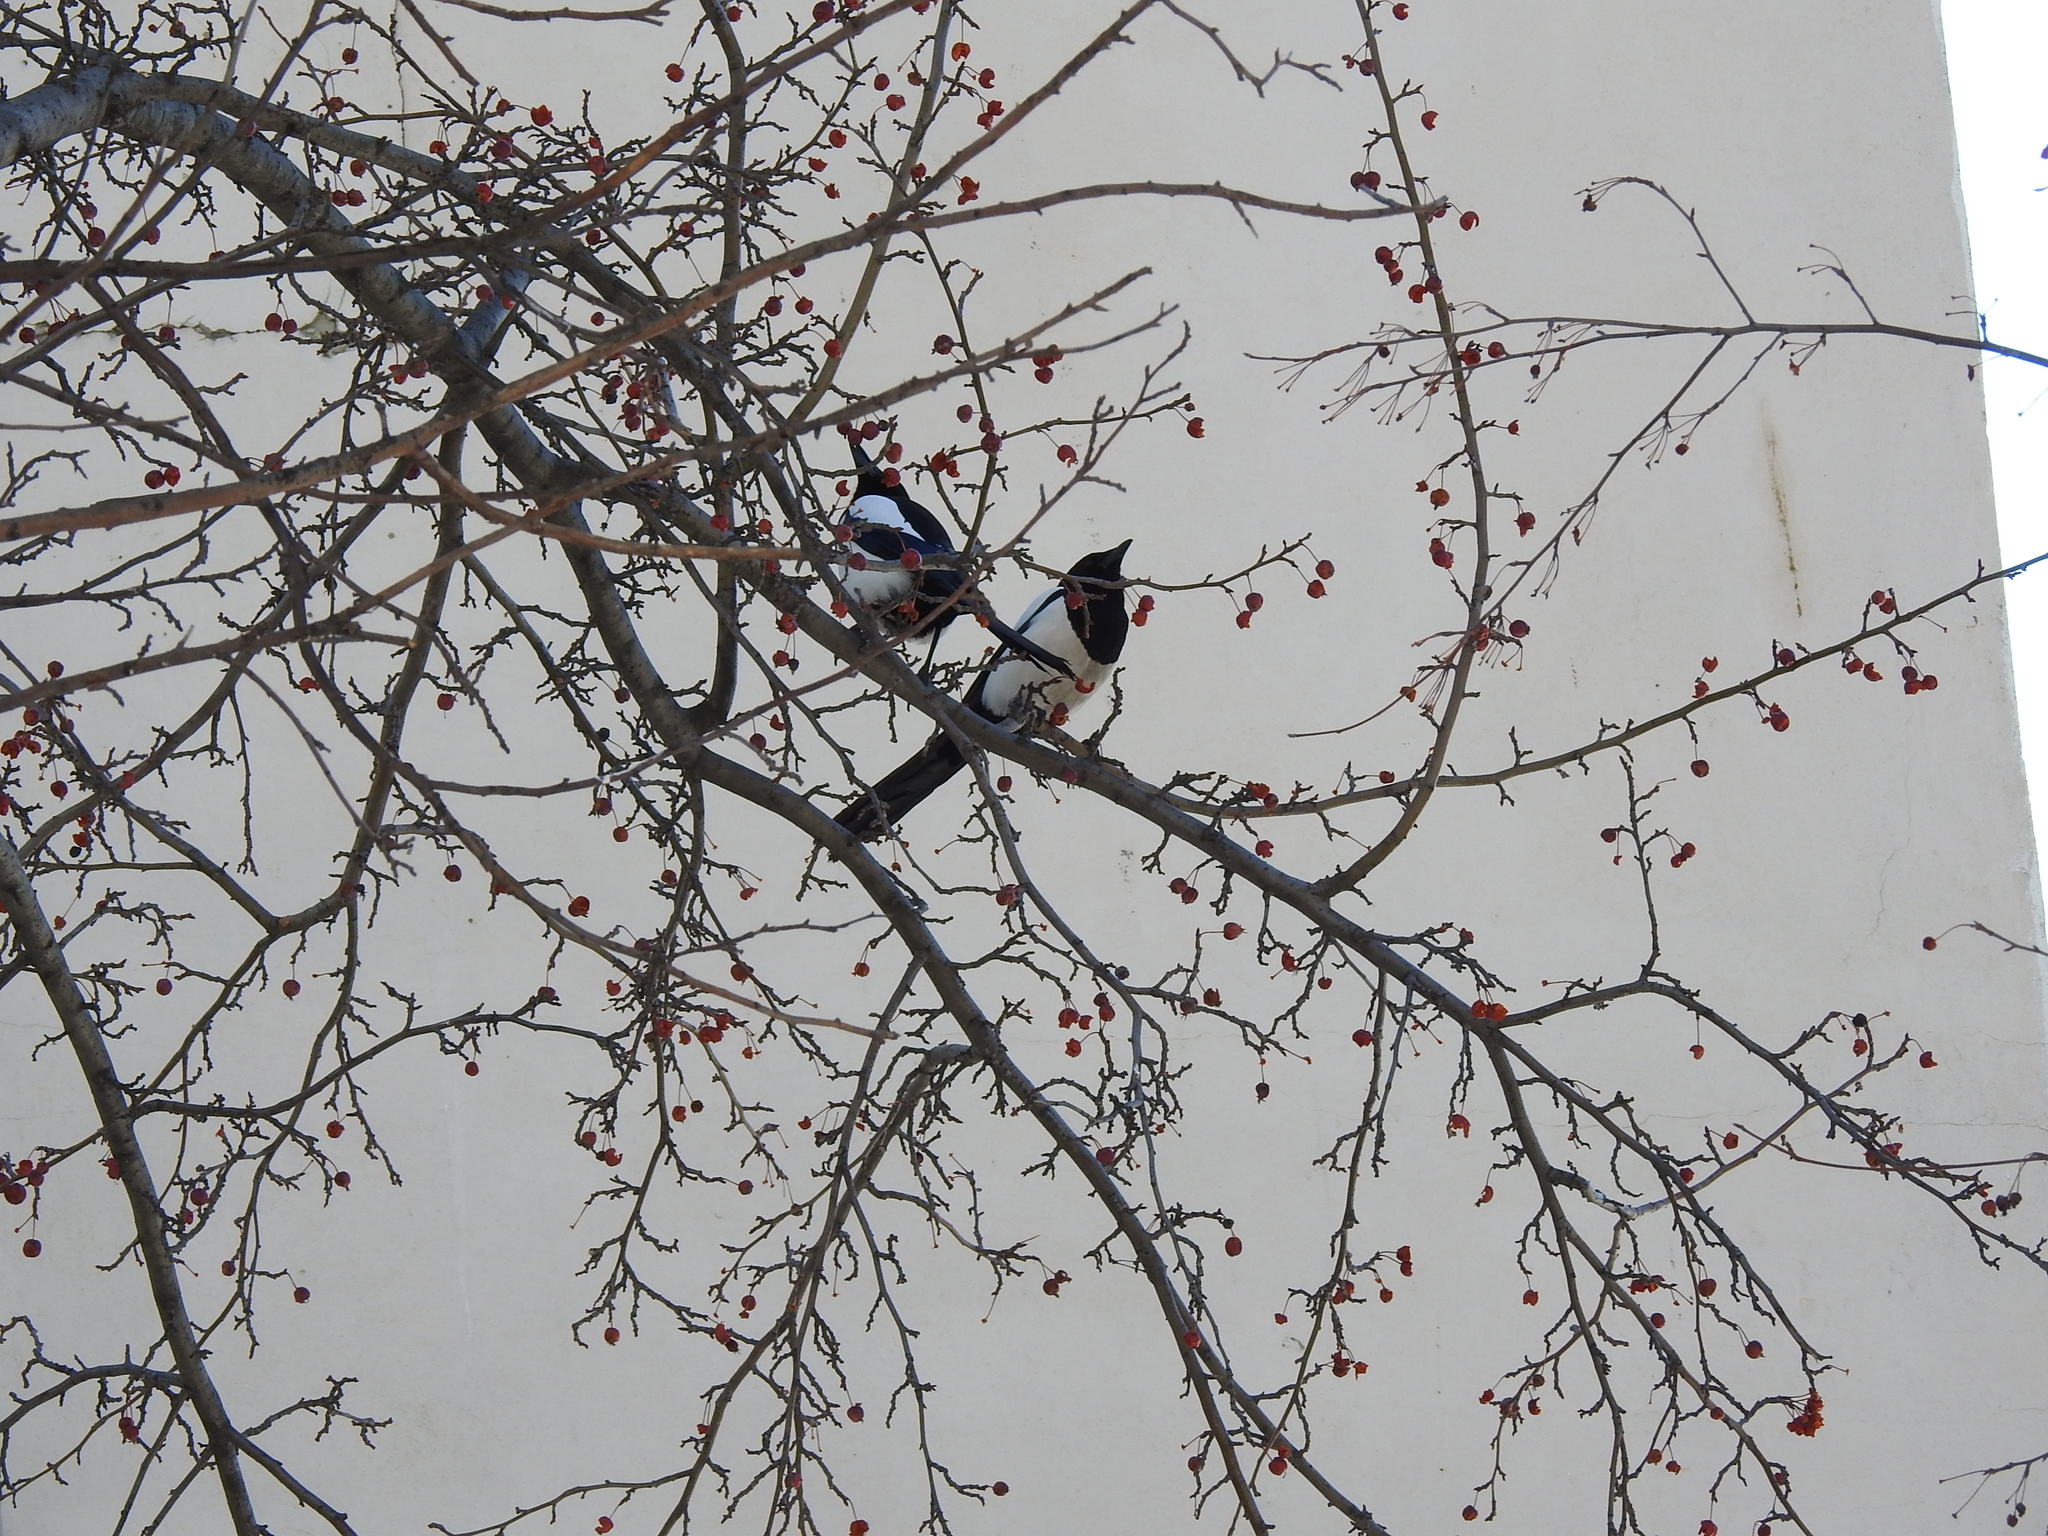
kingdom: Animalia
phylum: Chordata
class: Aves
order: Passeriformes
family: Corvidae
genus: Pica
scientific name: Pica pica
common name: Eurasian magpie
